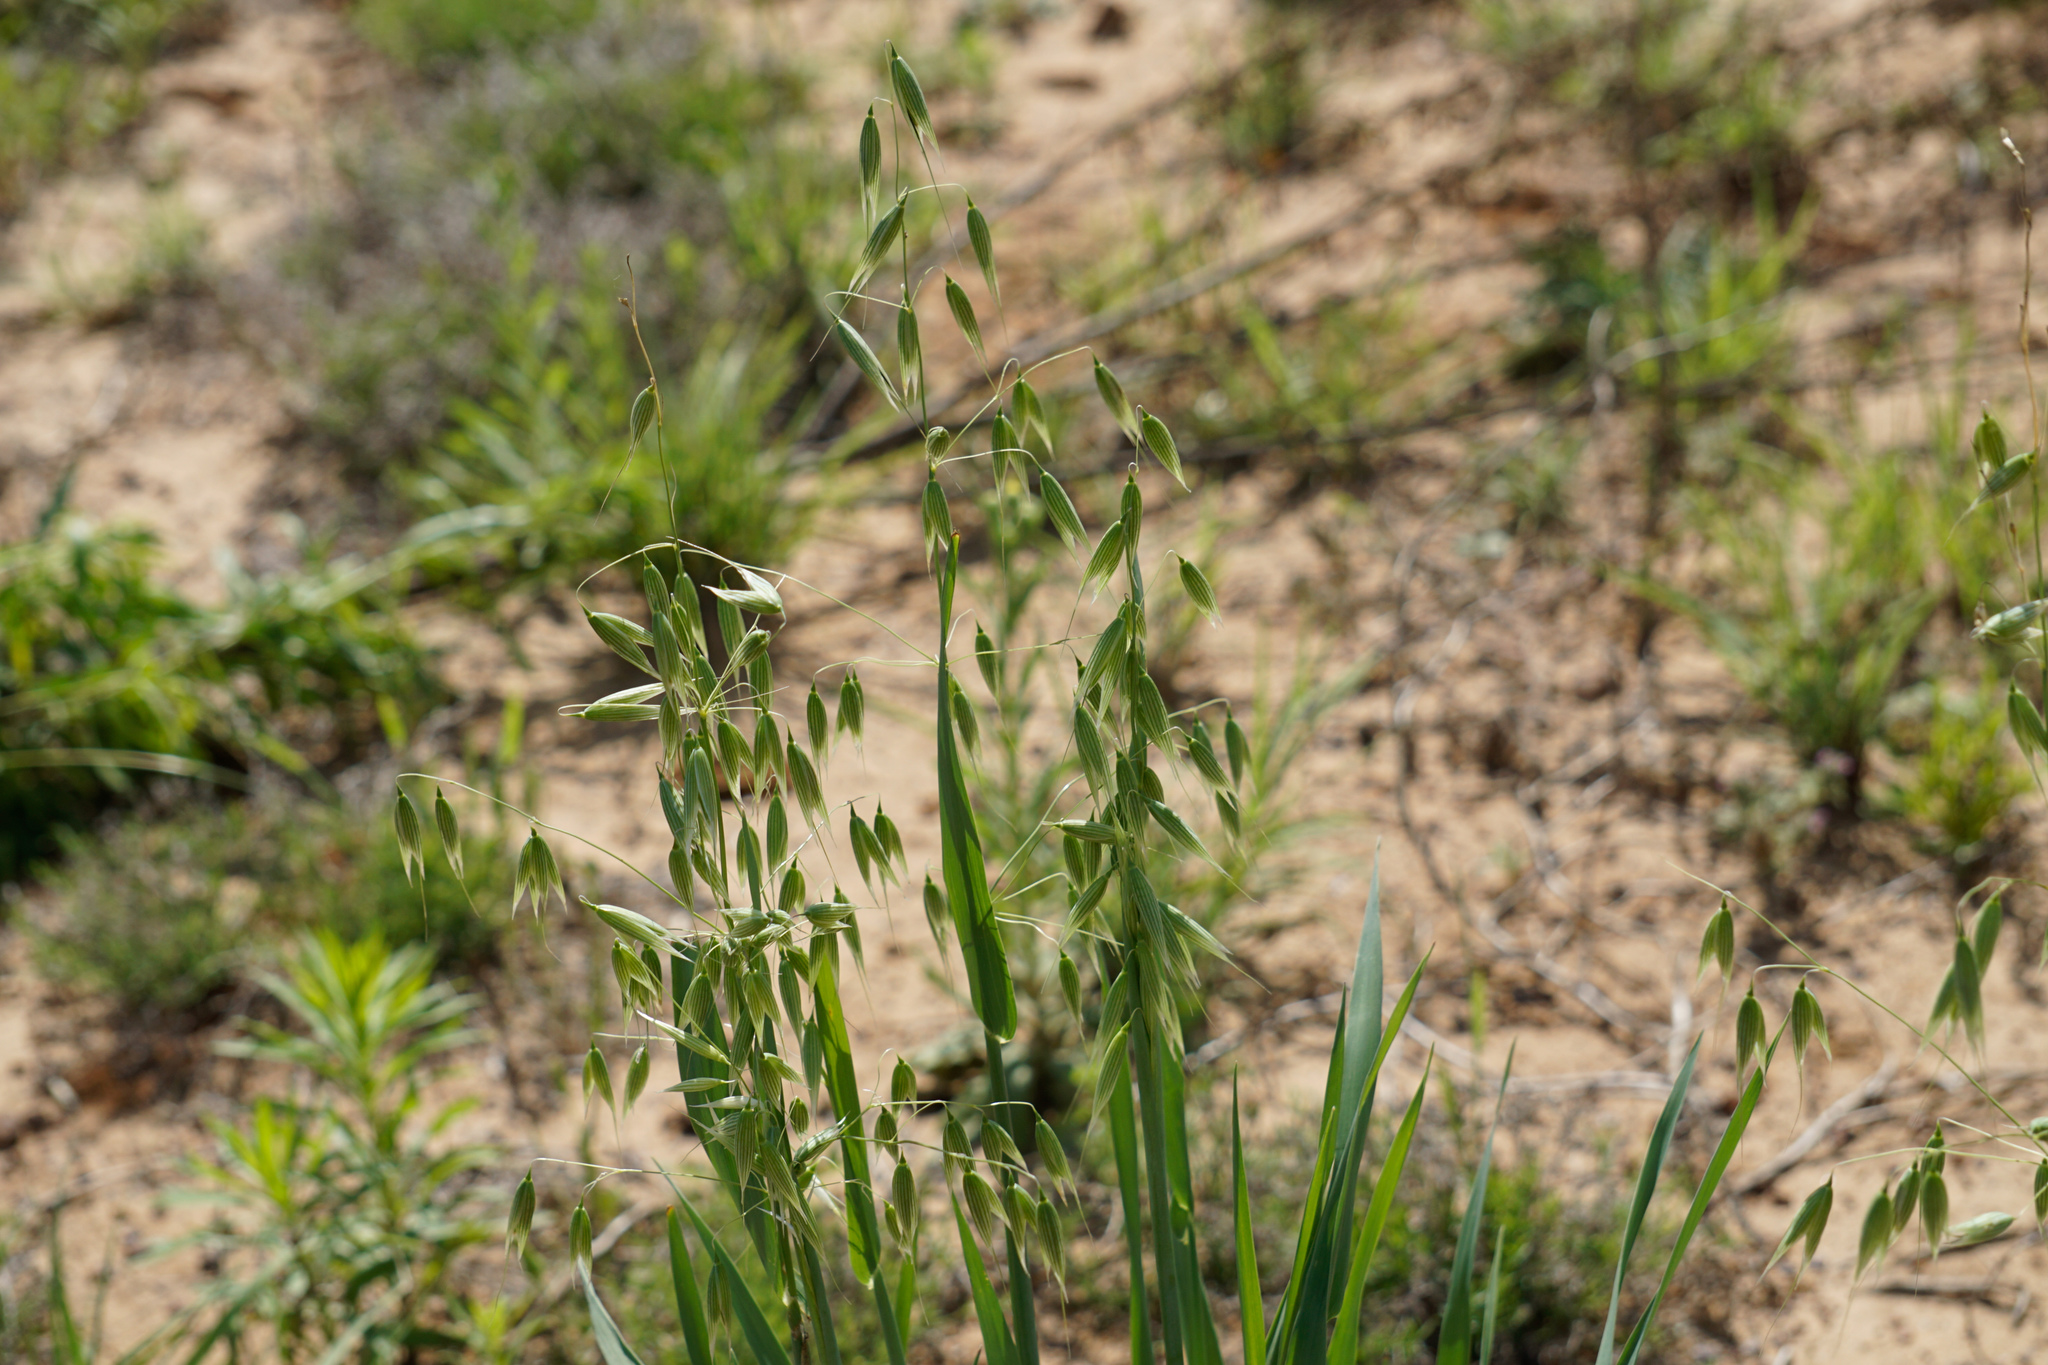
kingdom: Plantae
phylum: Tracheophyta
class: Liliopsida
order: Poales
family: Poaceae
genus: Avena
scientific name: Avena fatua
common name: Wild oat
